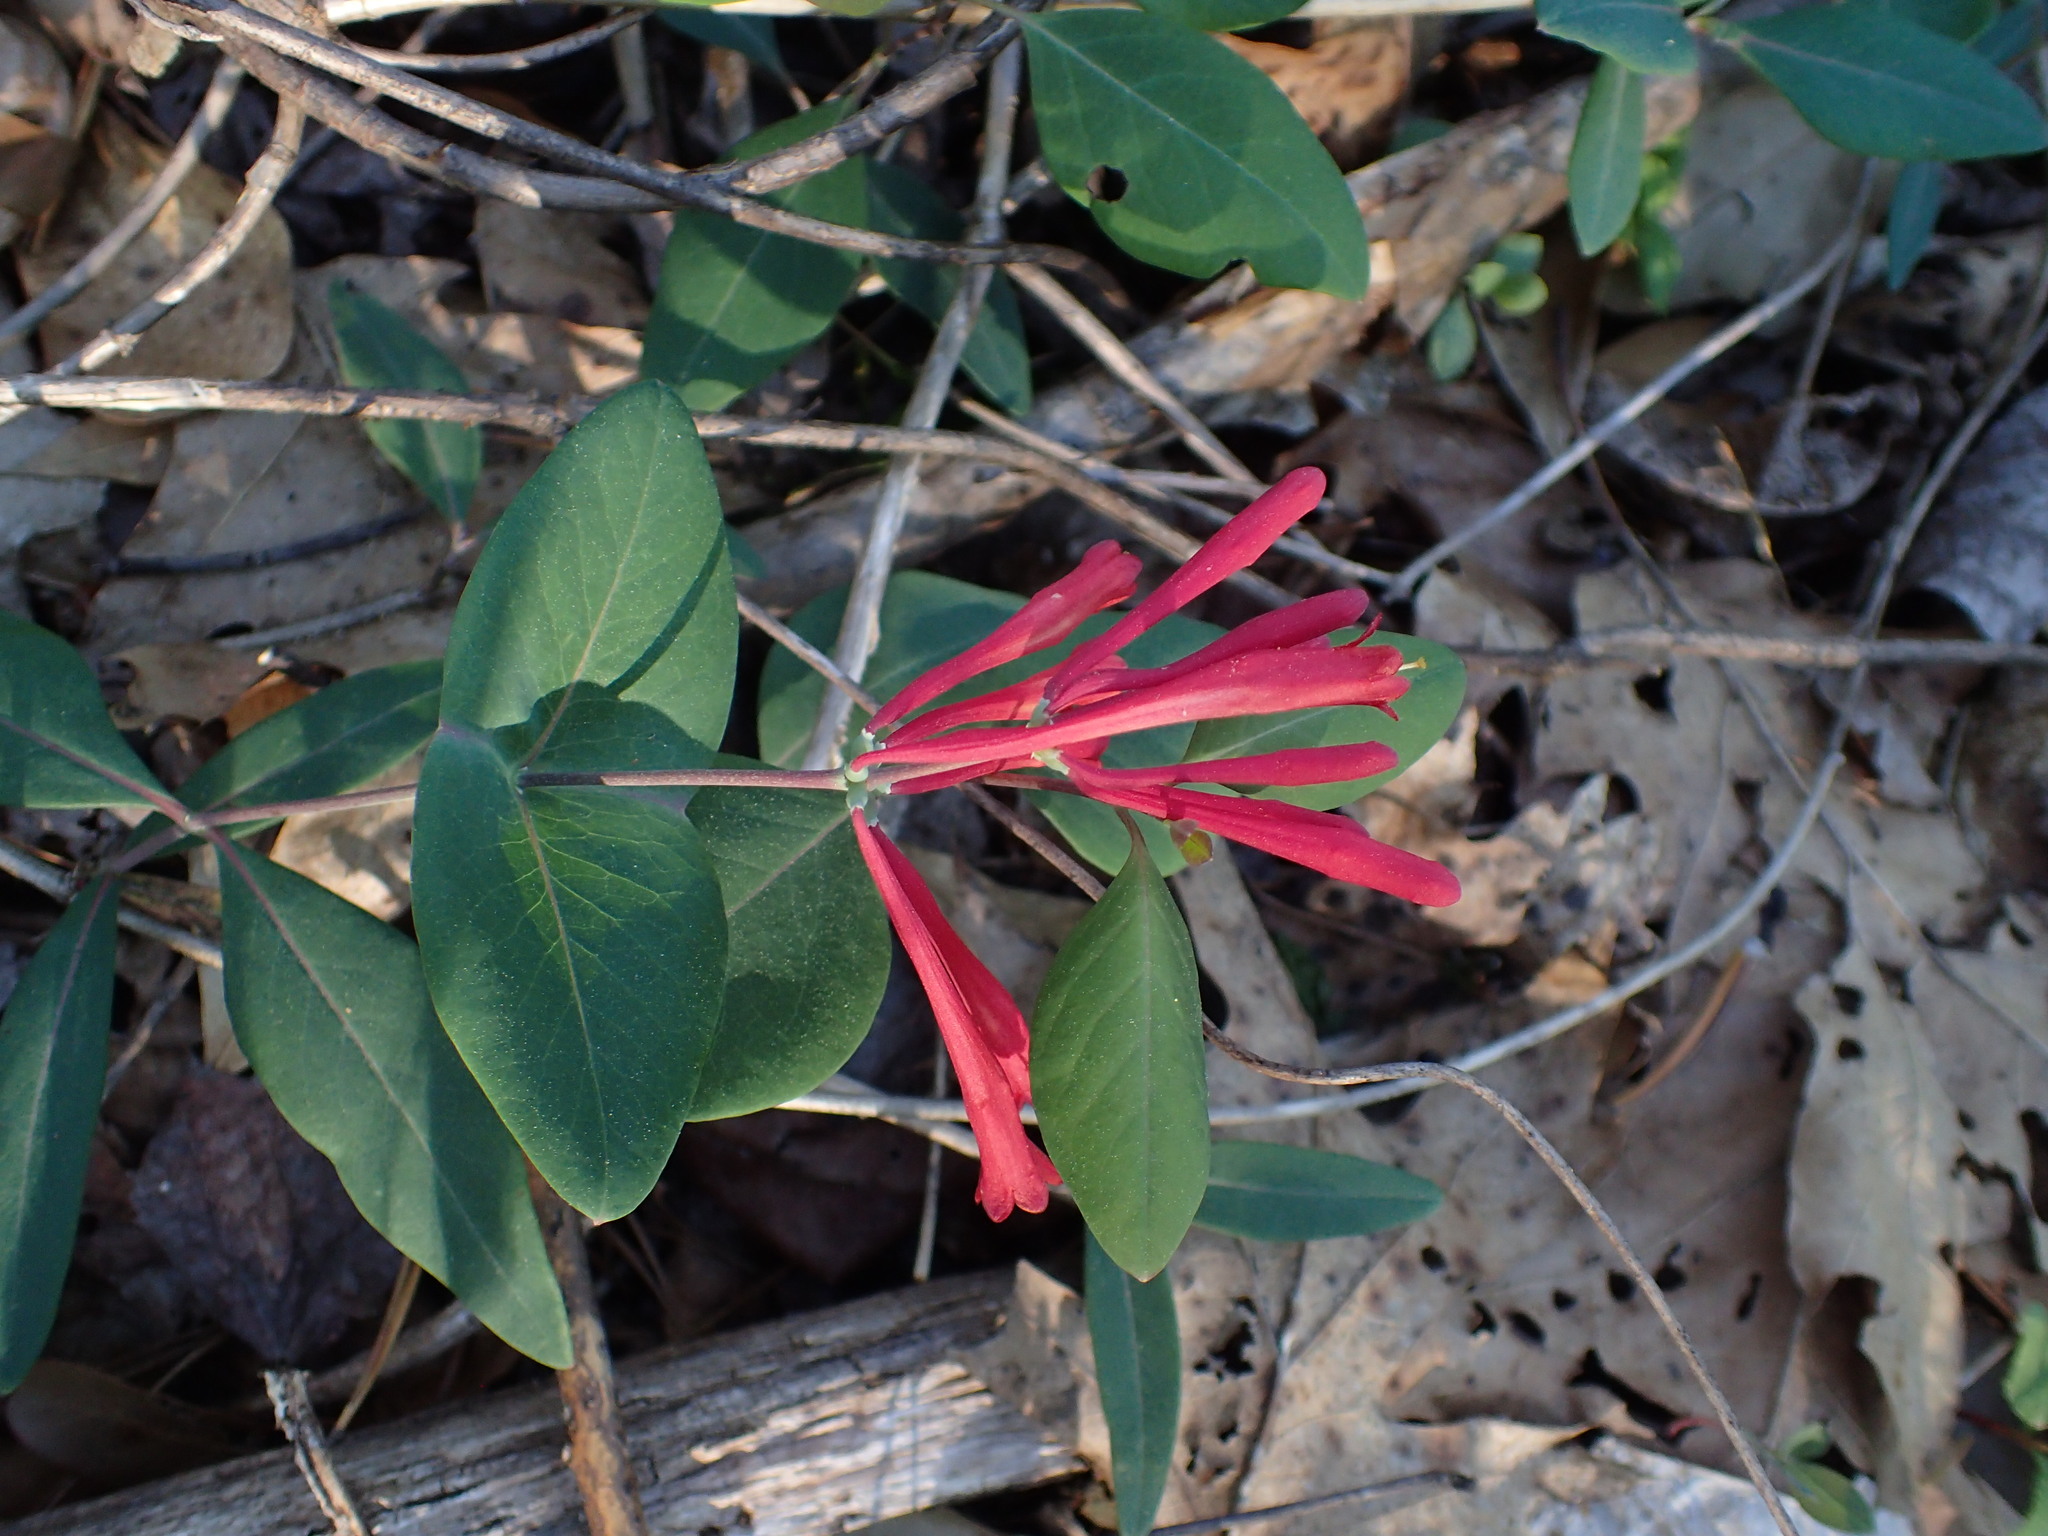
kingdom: Plantae
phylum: Tracheophyta
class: Magnoliopsida
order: Dipsacales
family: Caprifoliaceae
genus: Lonicera
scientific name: Lonicera sempervirens
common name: Coral honeysuckle
